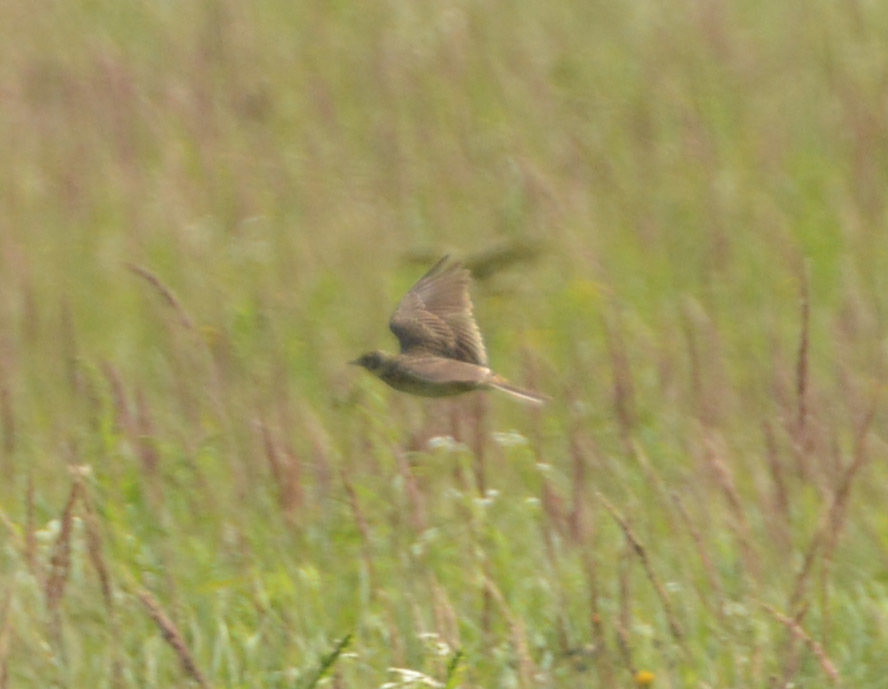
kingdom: Animalia
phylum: Chordata
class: Aves
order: Passeriformes
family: Alaudidae
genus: Alauda
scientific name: Alauda arvensis
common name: Eurasian skylark
